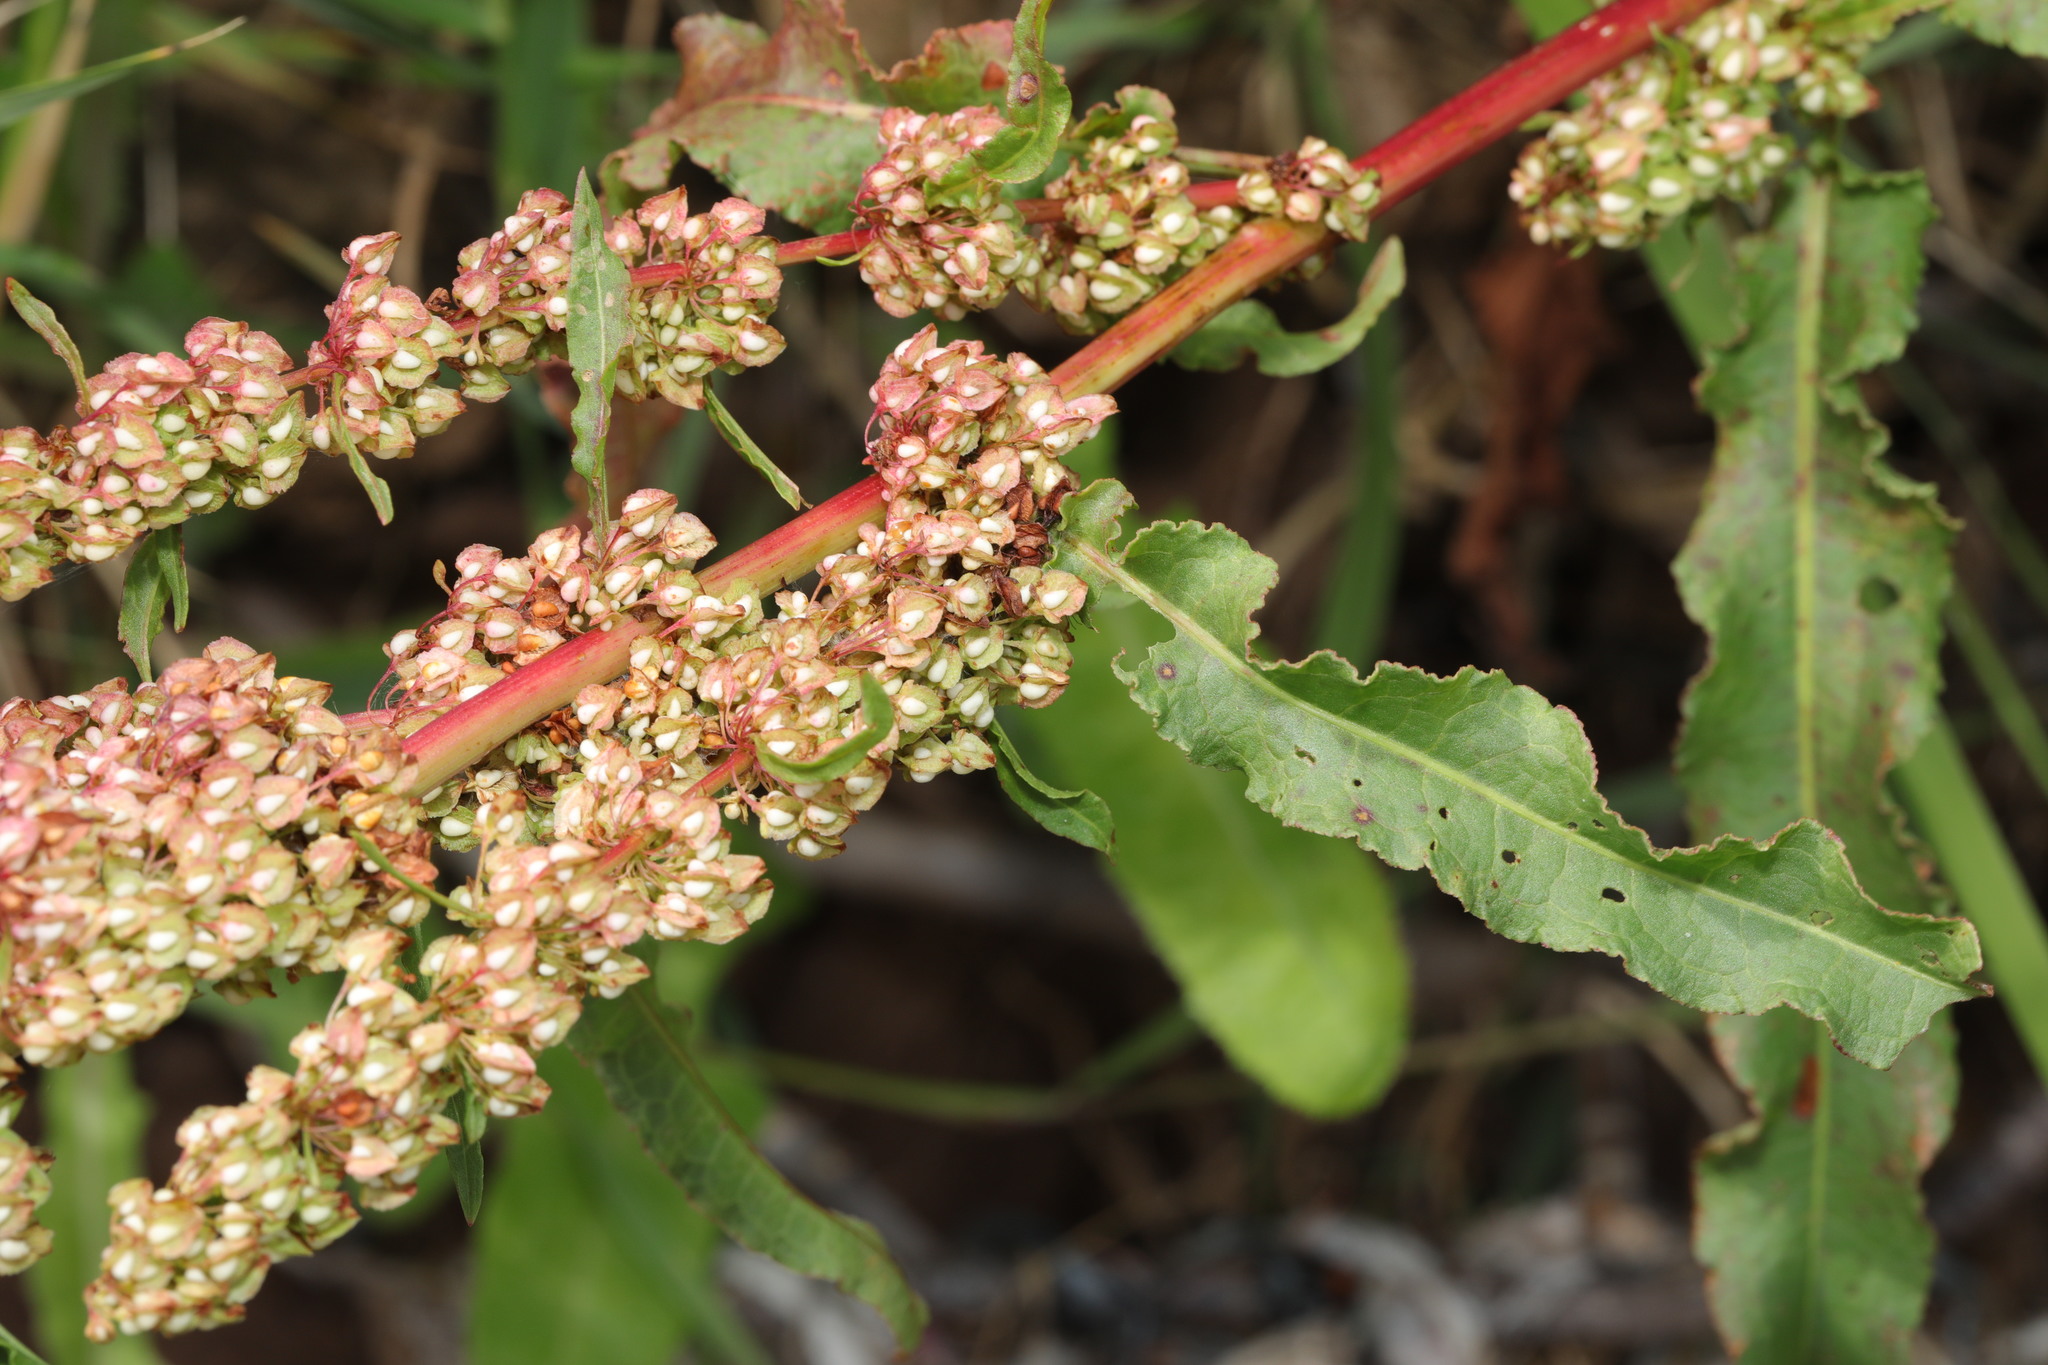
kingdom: Plantae
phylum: Tracheophyta
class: Magnoliopsida
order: Caryophyllales
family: Polygonaceae
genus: Rumex
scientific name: Rumex crispus
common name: Curled dock
